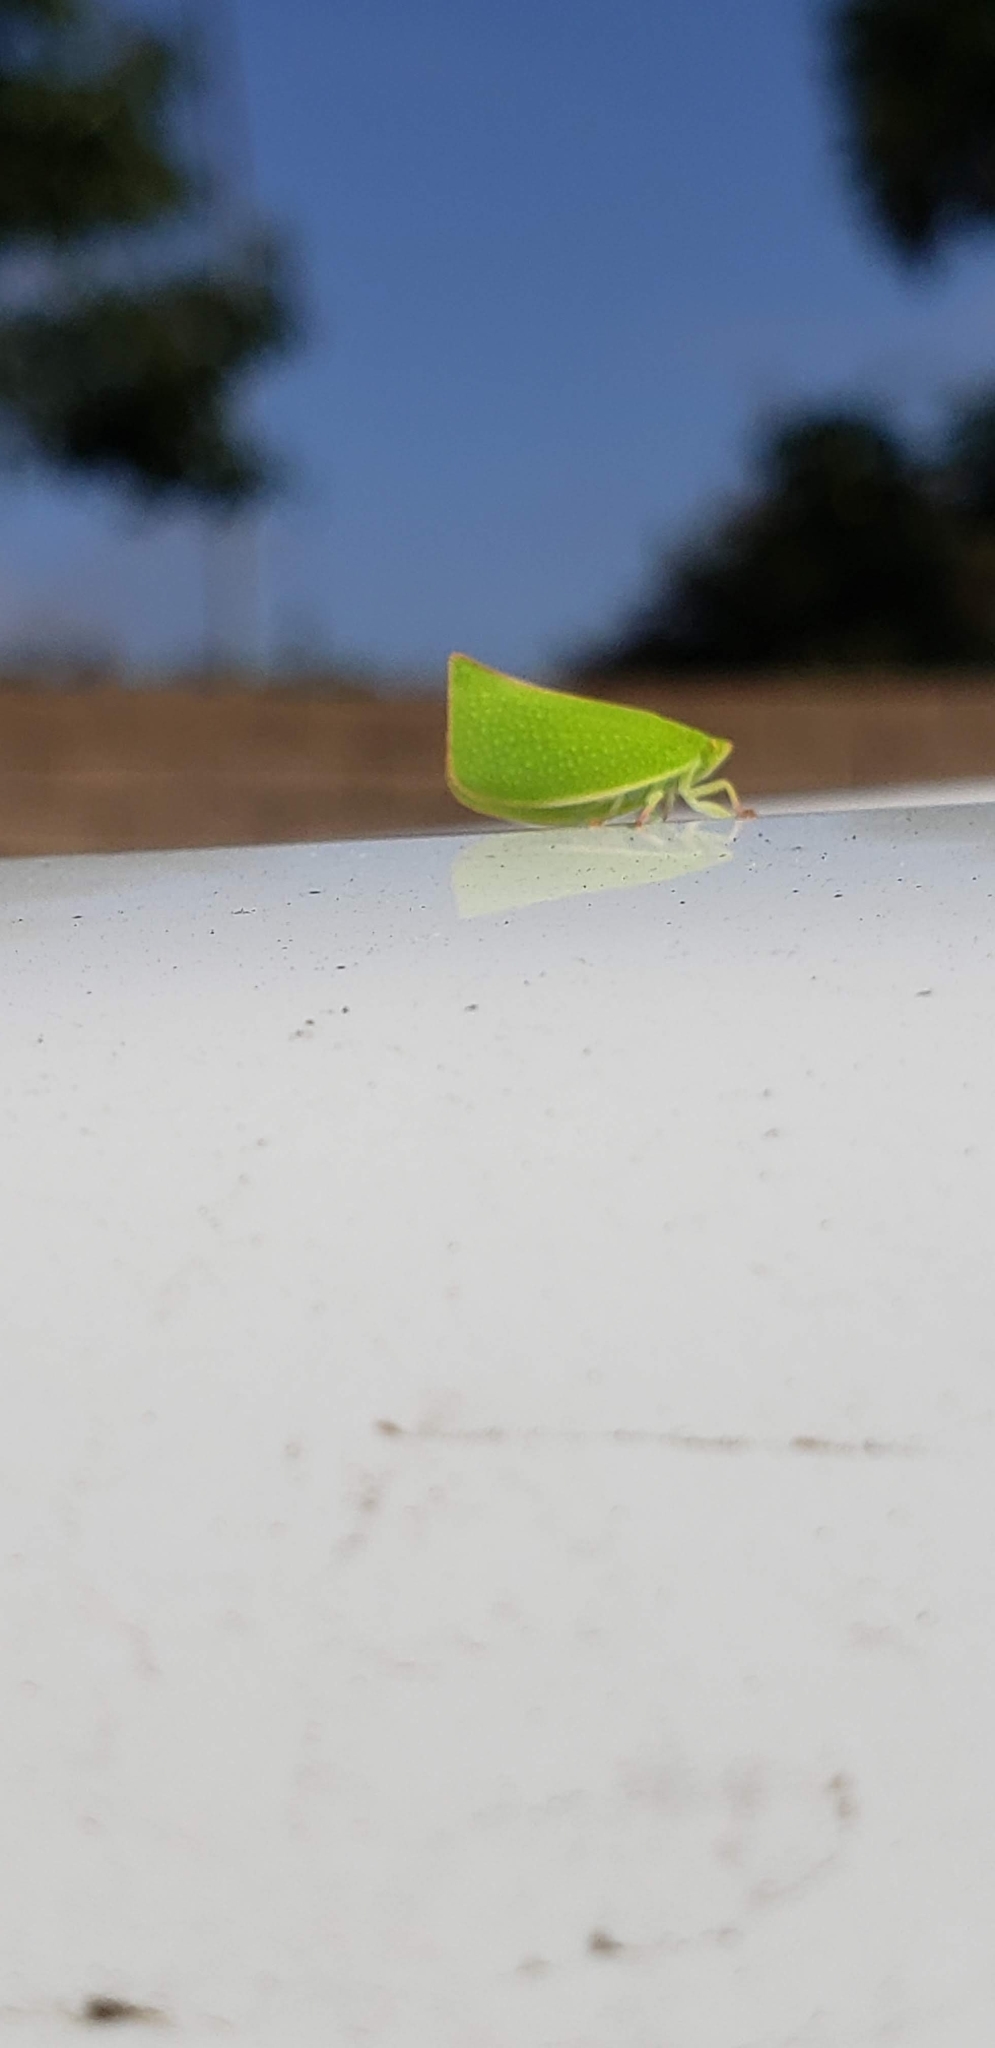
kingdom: Animalia
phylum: Arthropoda
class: Insecta
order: Hemiptera
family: Flatidae
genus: Siphanta
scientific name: Siphanta acuta
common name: Torpedo bug
